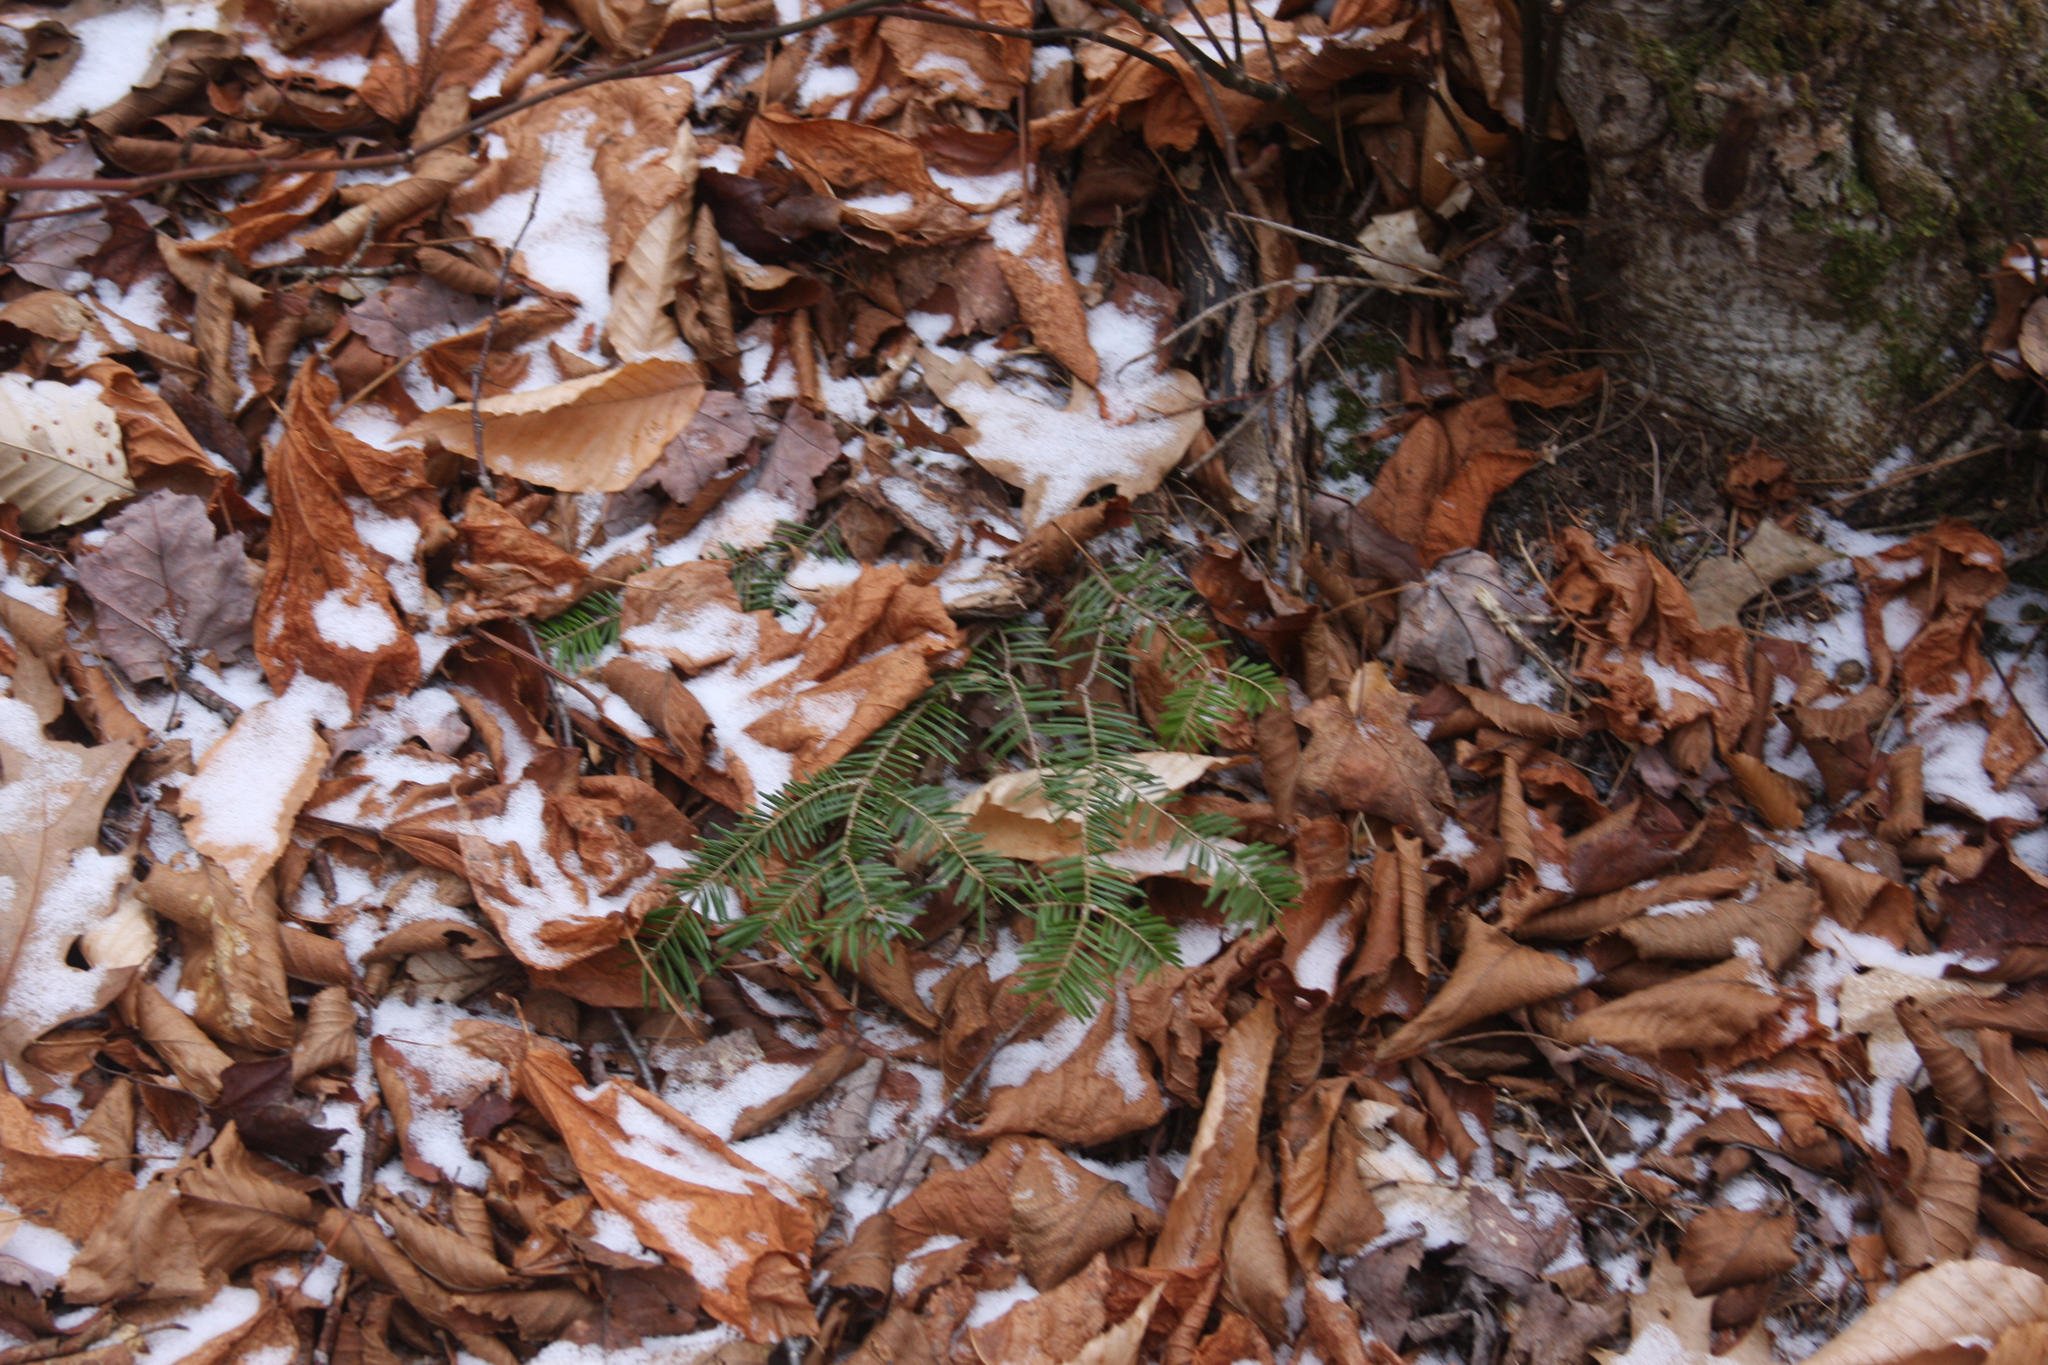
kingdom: Plantae
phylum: Tracheophyta
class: Pinopsida
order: Pinales
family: Pinaceae
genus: Abies
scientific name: Abies balsamea
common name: Balsam fir
